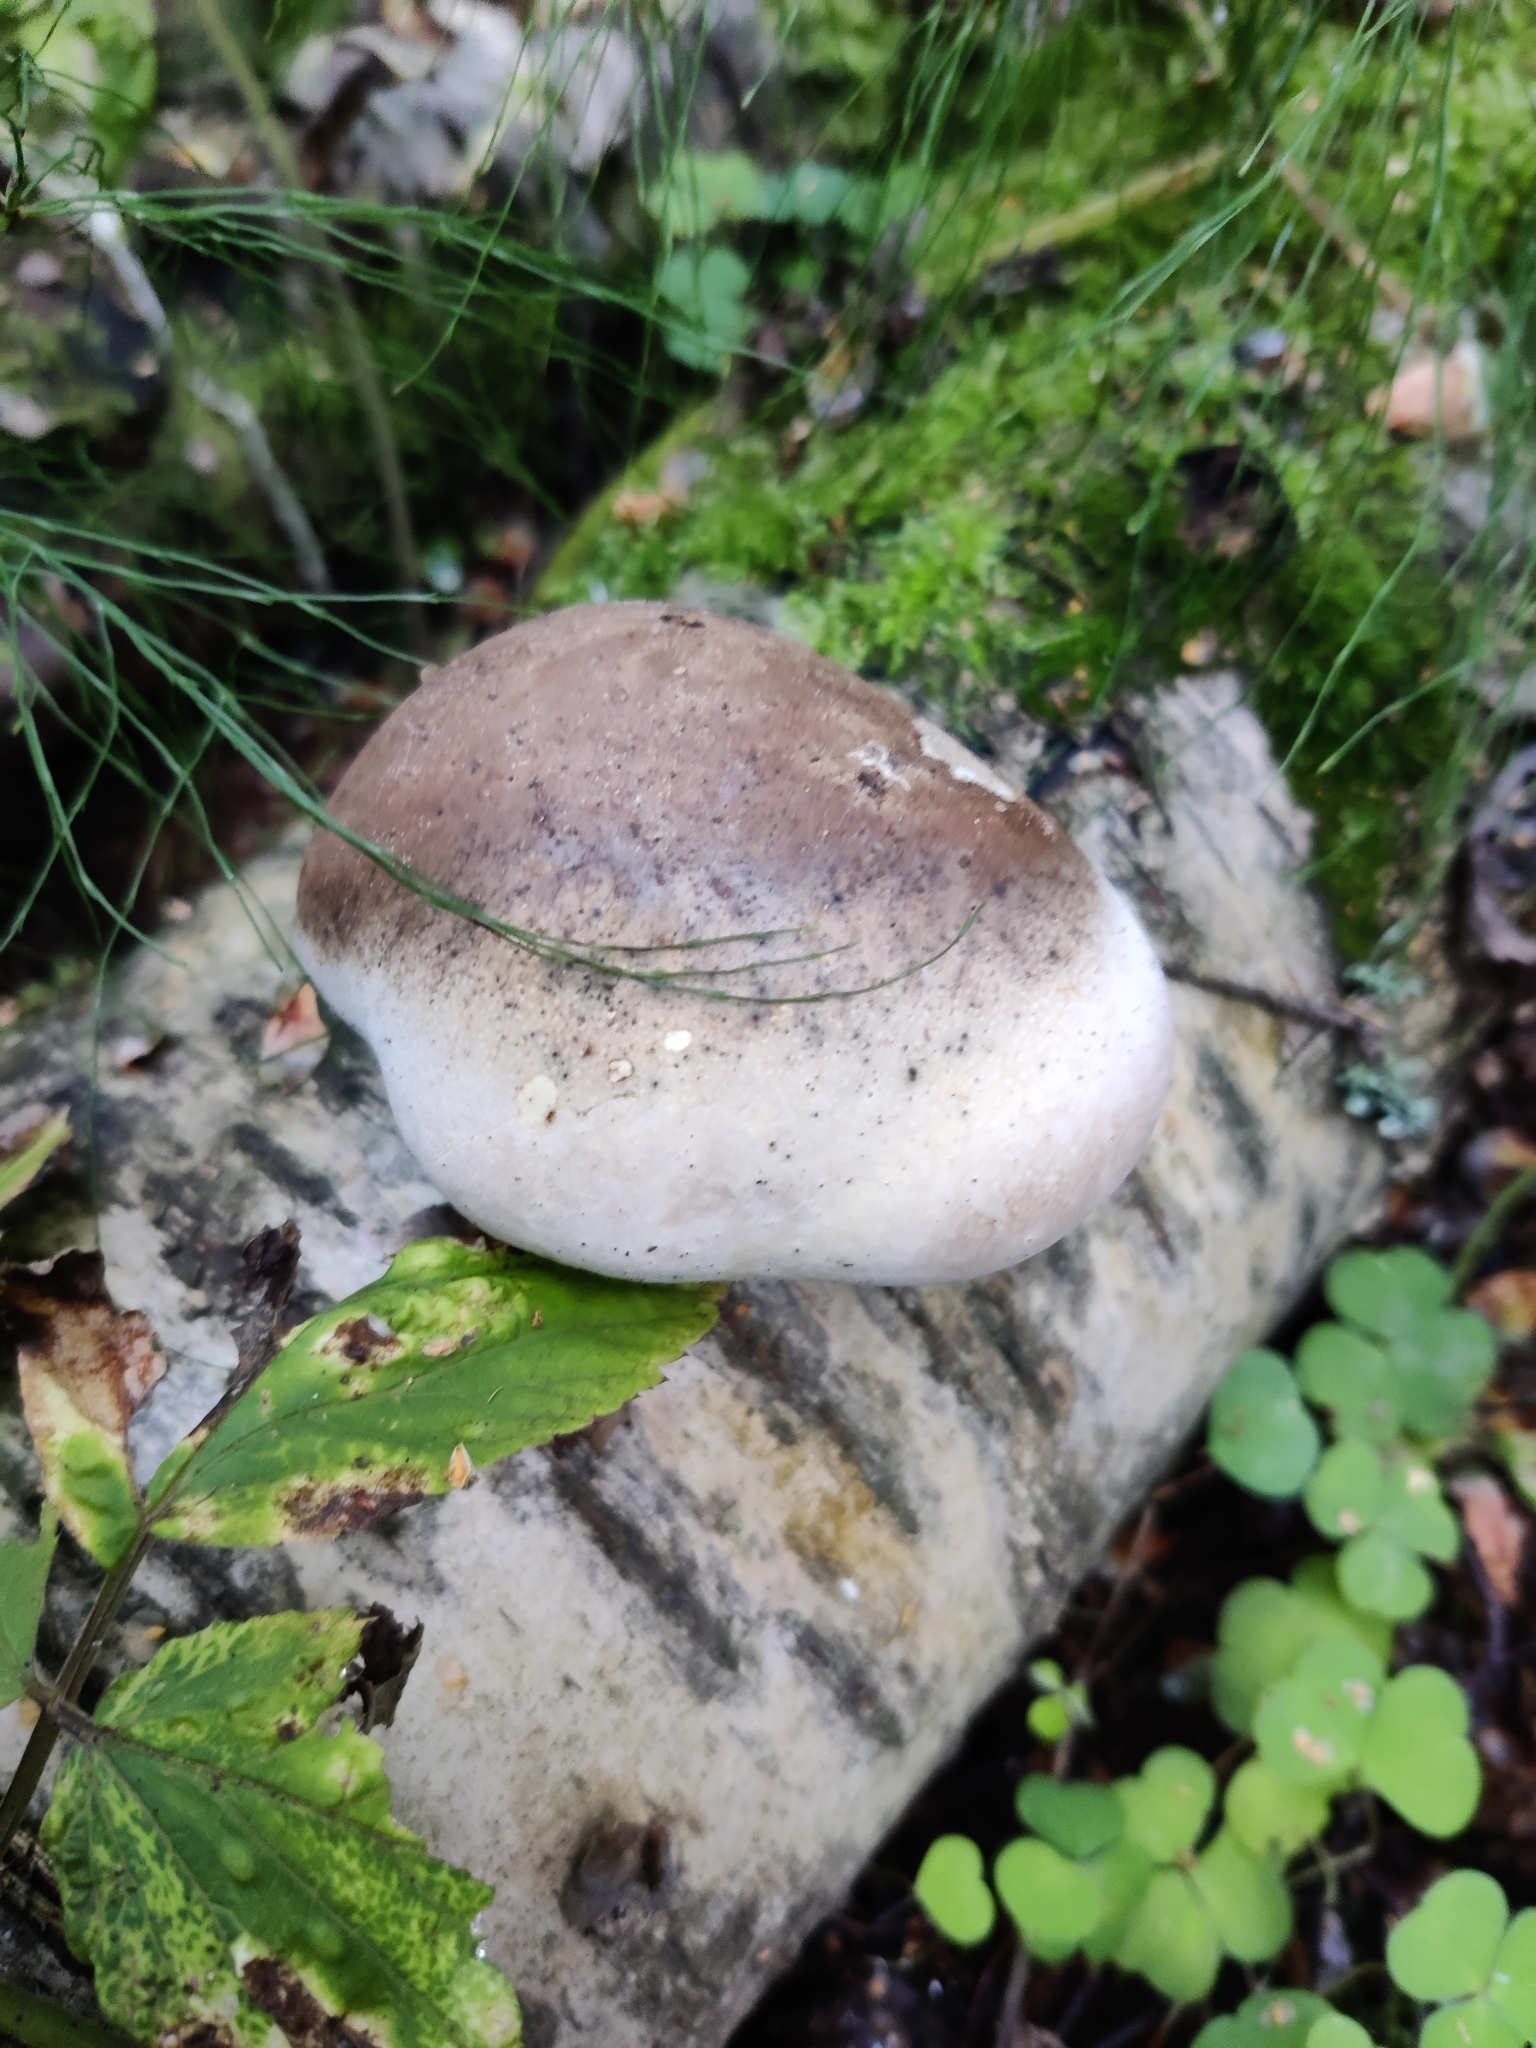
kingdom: Fungi
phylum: Basidiomycota
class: Agaricomycetes
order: Polyporales
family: Fomitopsidaceae
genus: Fomitopsis
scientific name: Fomitopsis betulina
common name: Birch polypore
